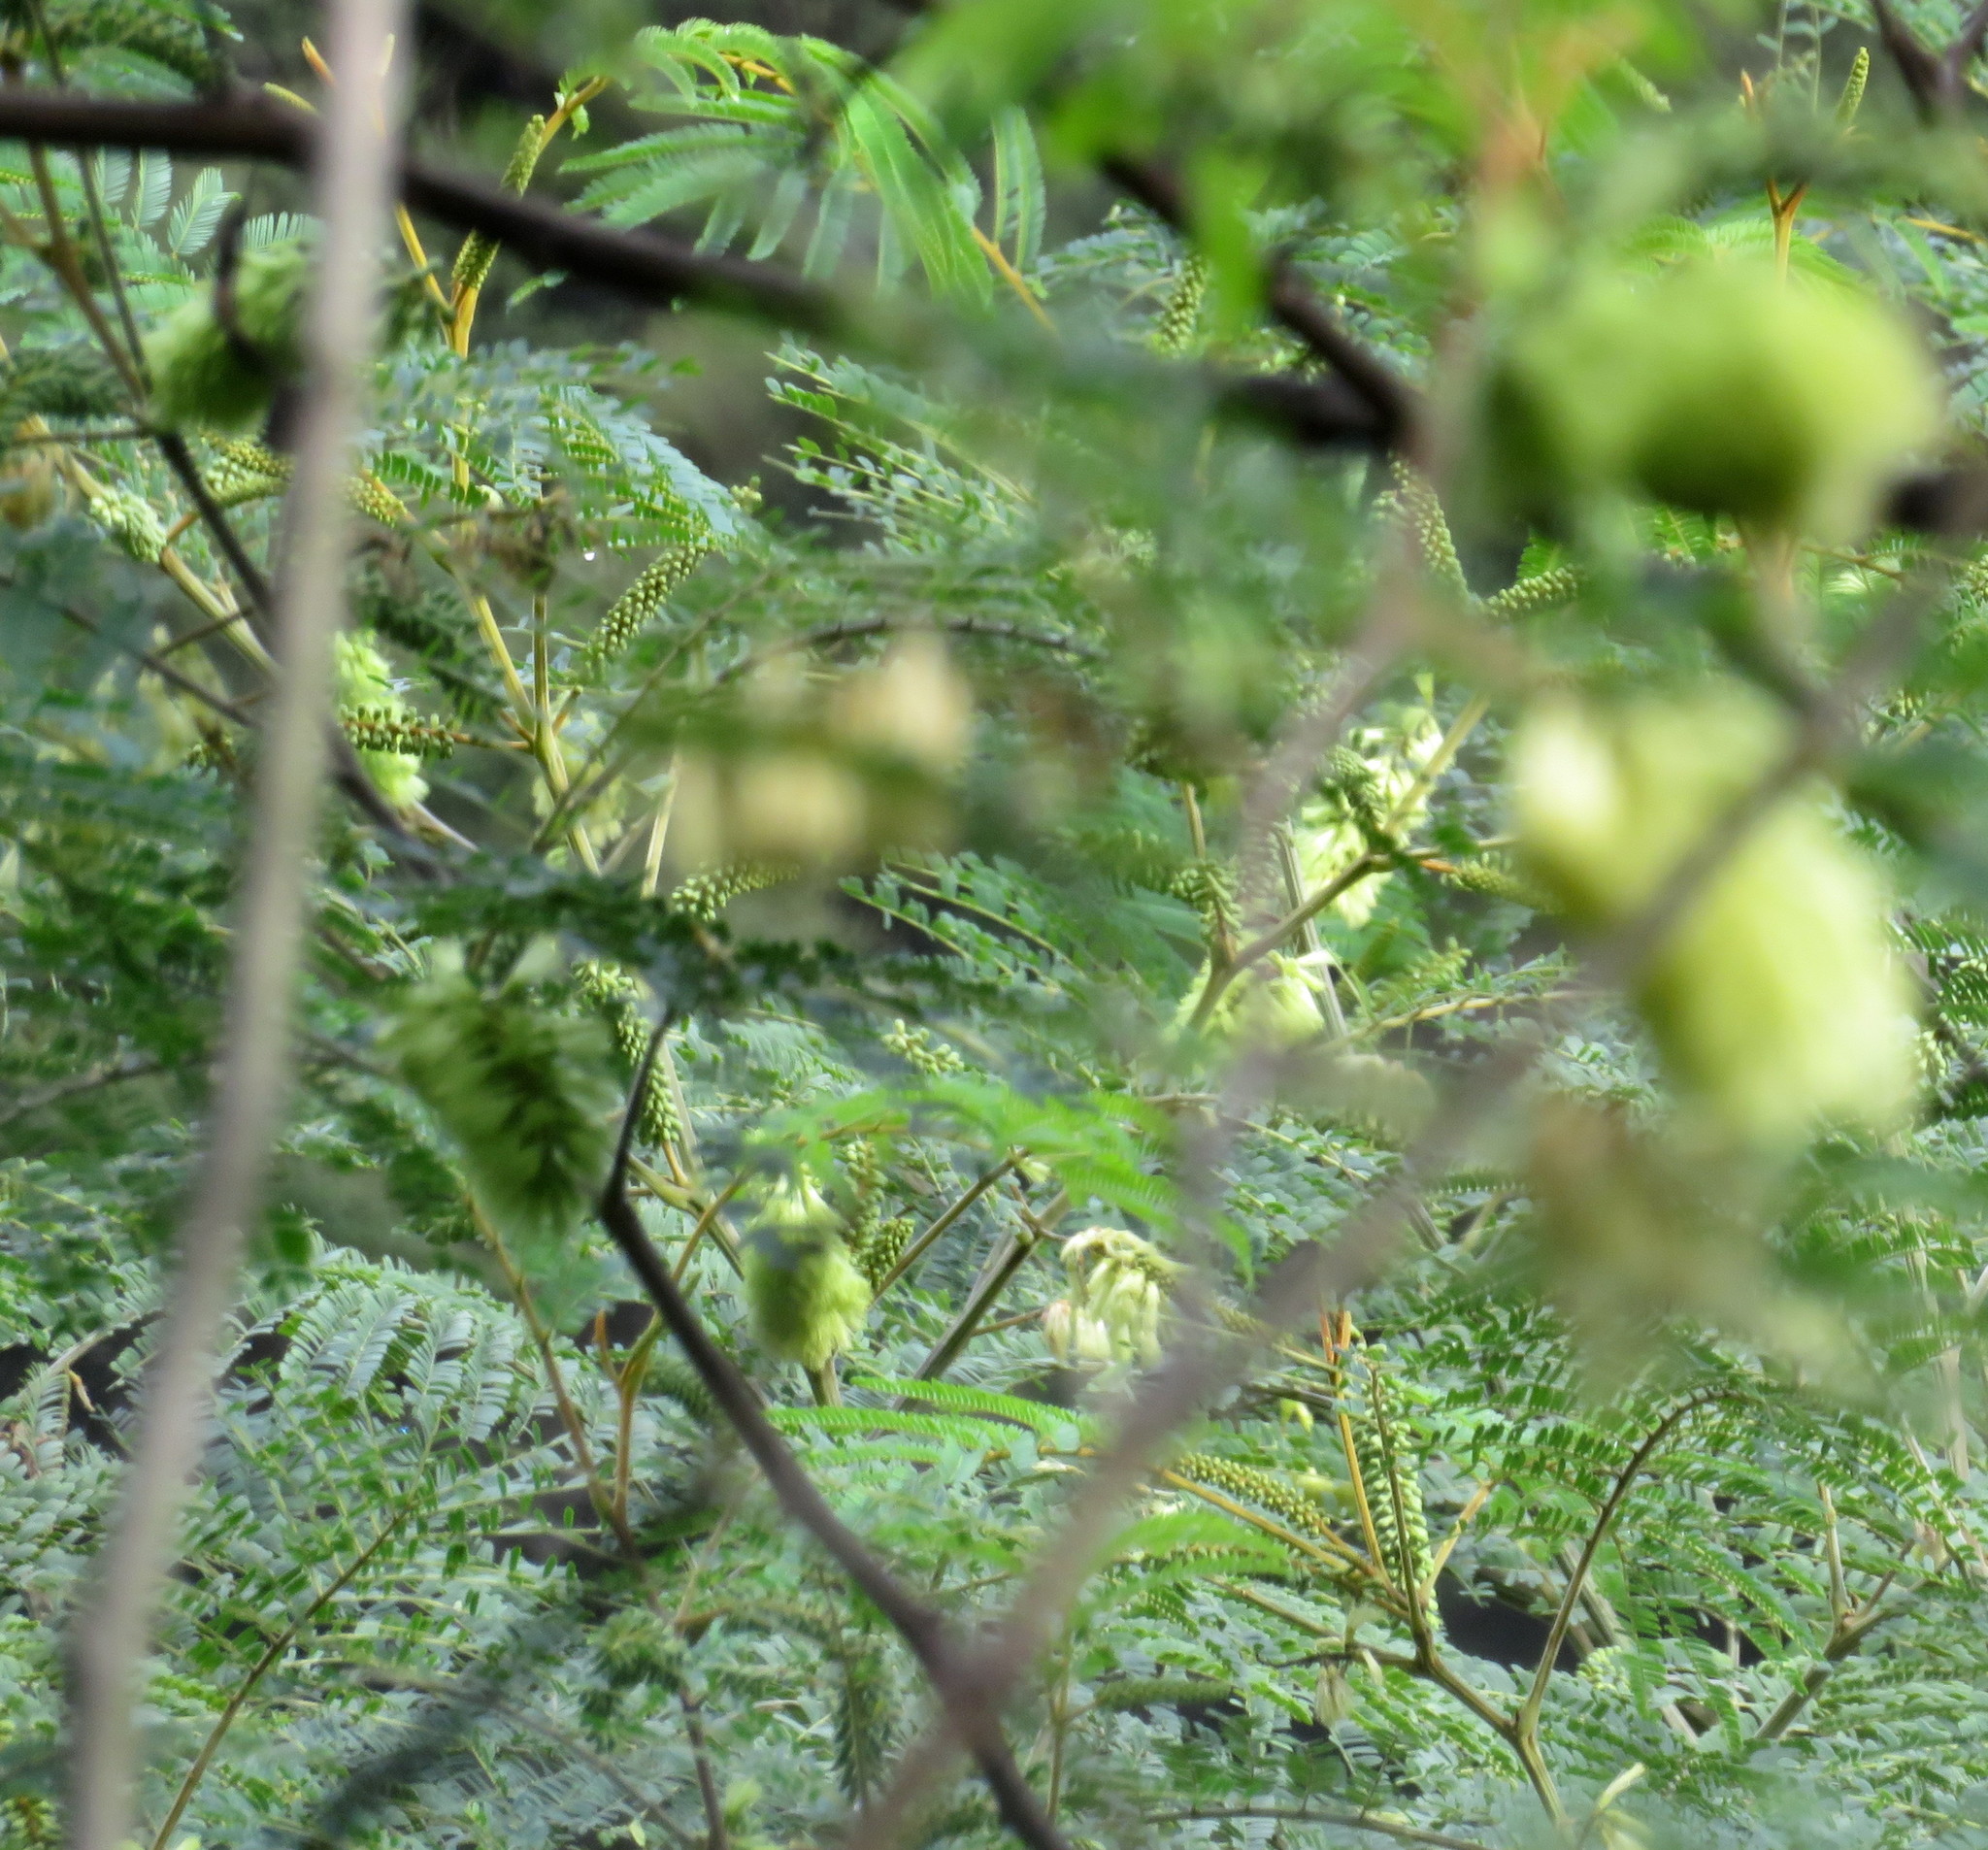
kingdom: Animalia
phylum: Arthropoda
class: Insecta
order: Hymenoptera
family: Apidae
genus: Apis
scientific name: Apis mellifera
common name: Honey bee
